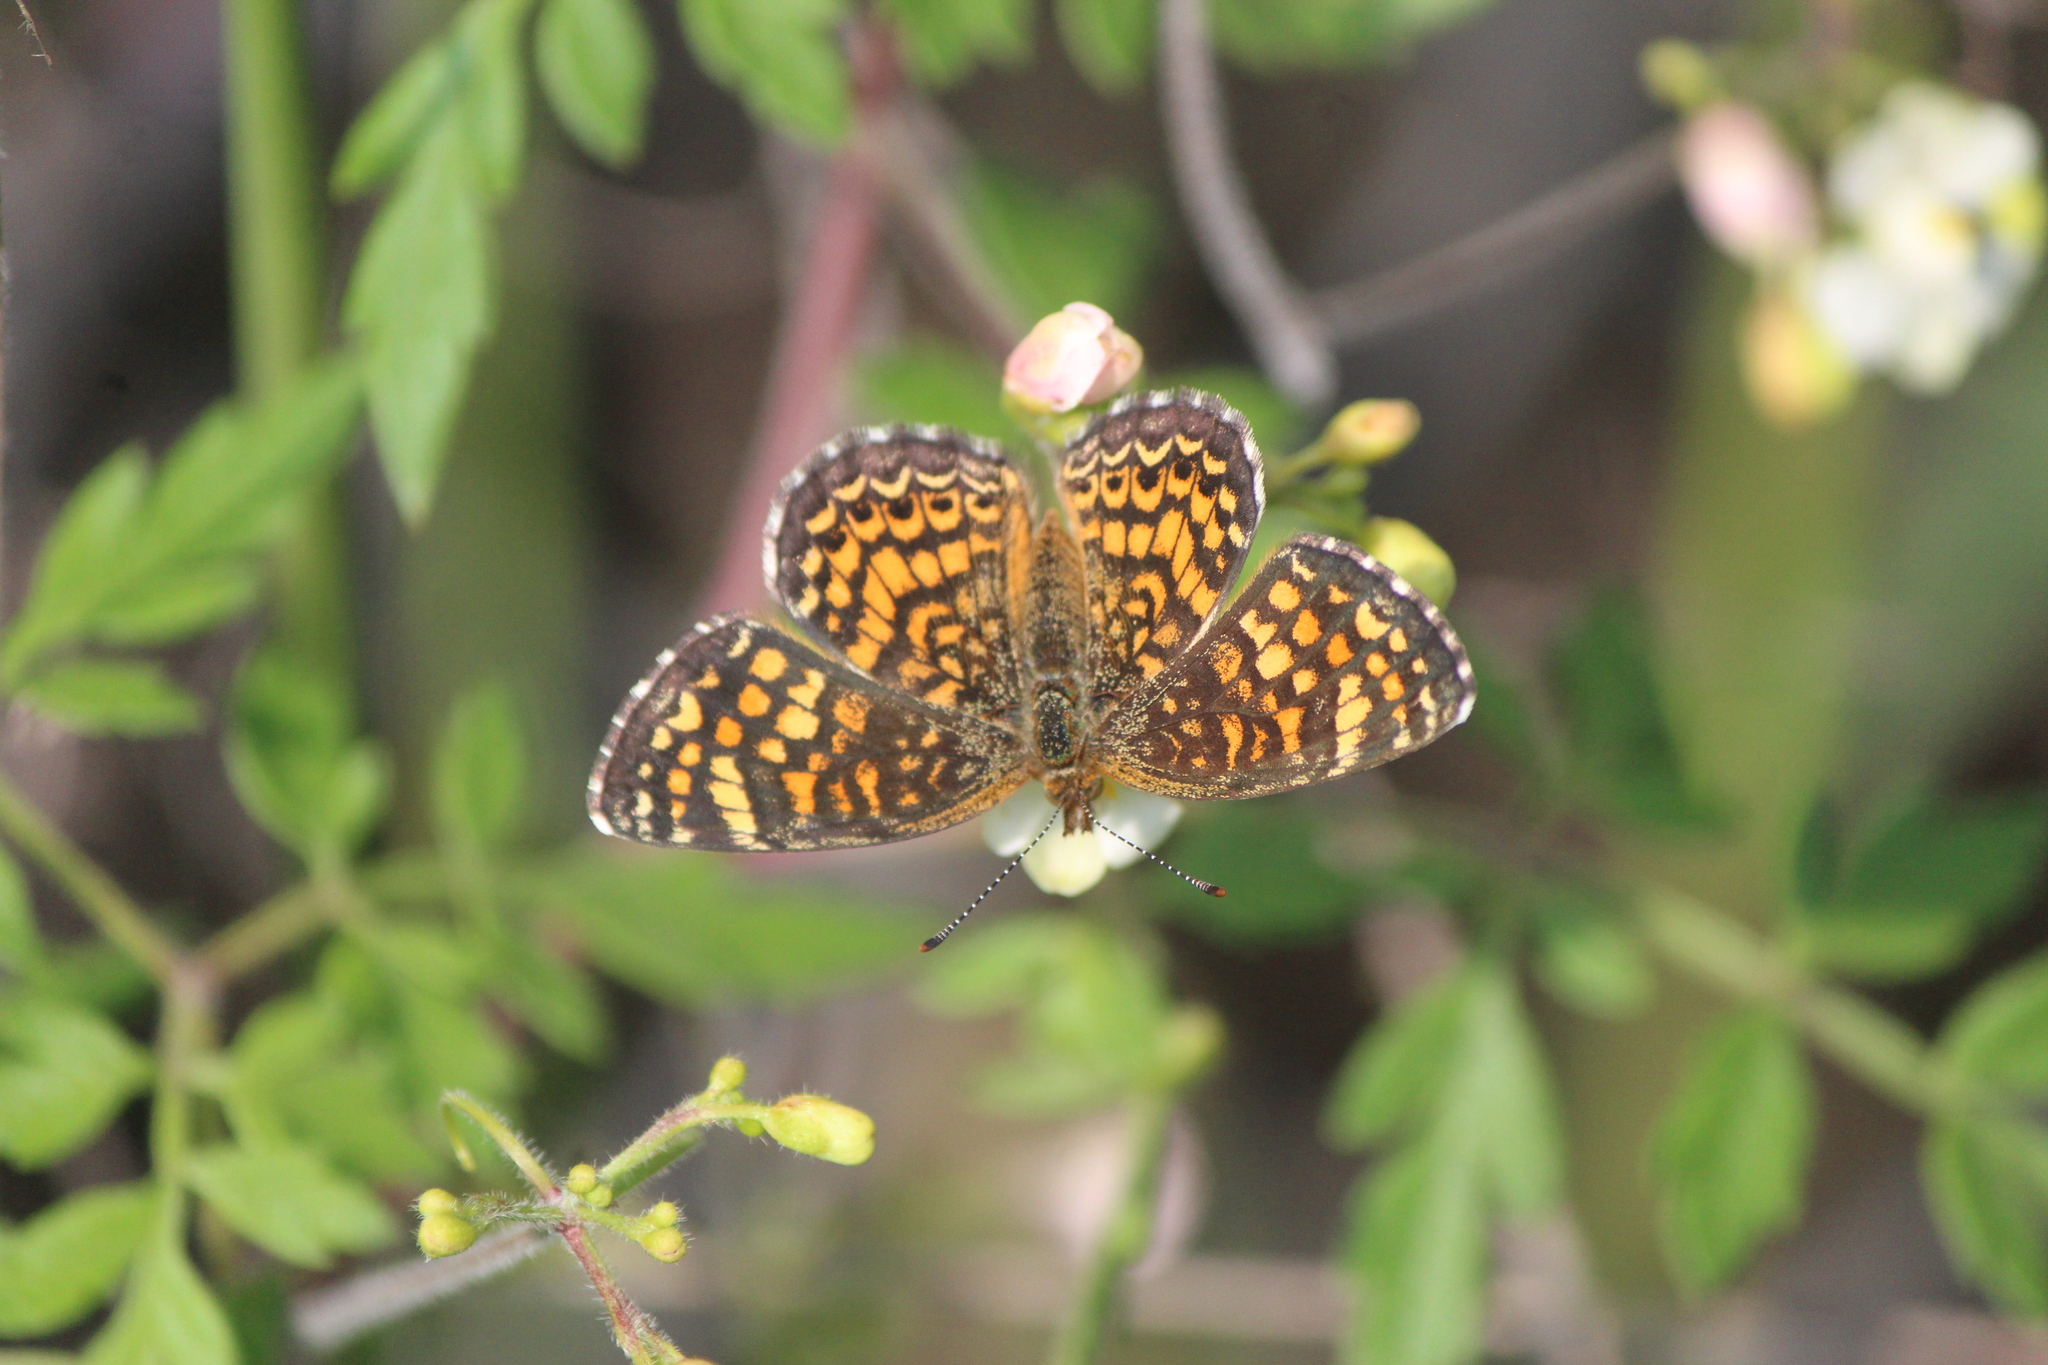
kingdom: Animalia
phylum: Arthropoda
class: Insecta
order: Lepidoptera
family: Nymphalidae
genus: Phyciodes
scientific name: Phyciodes vesta
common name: Vesta crescent
